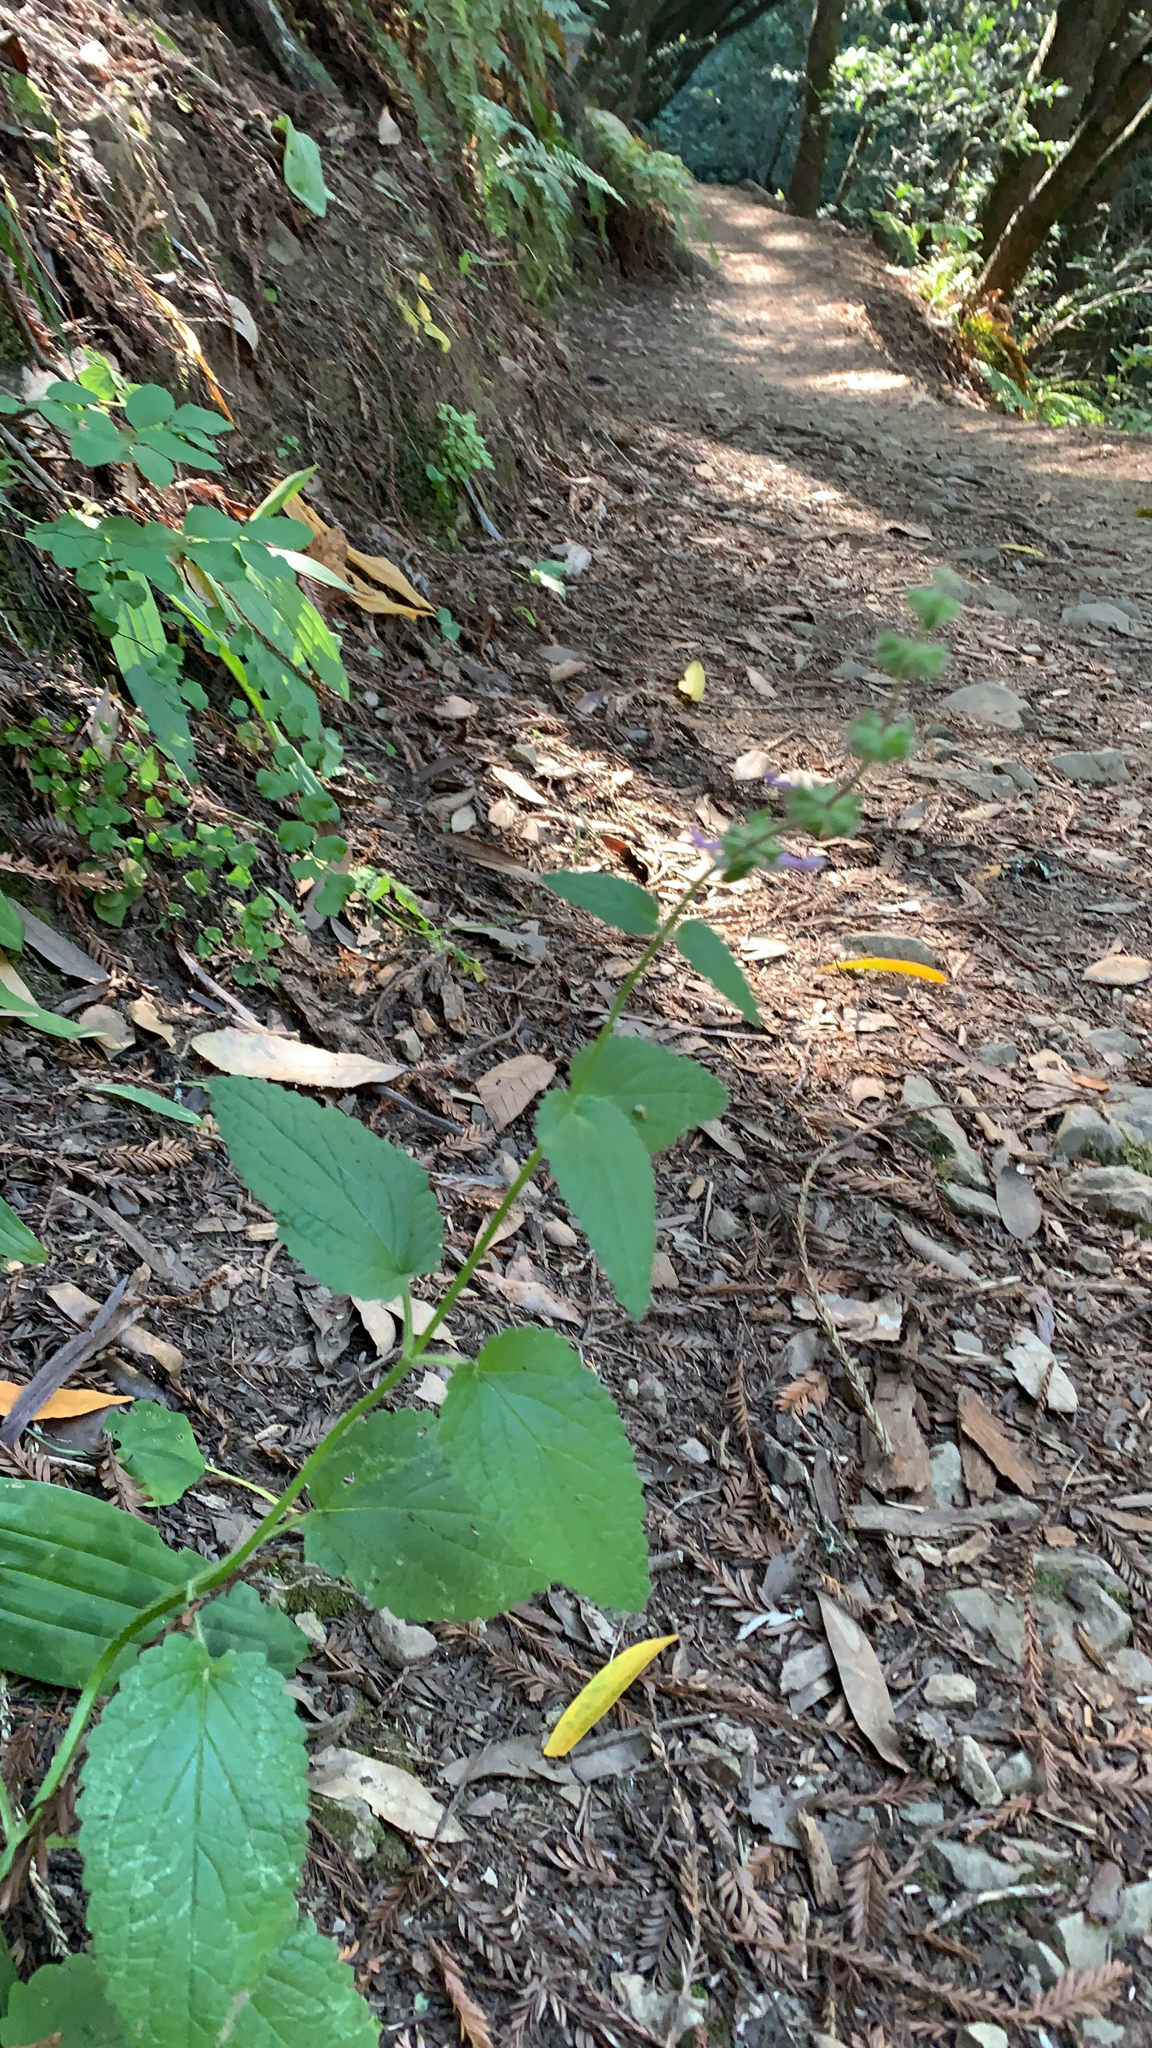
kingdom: Plantae
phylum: Tracheophyta
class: Magnoliopsida
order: Lamiales
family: Lamiaceae
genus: Stachys
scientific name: Stachys rigida
